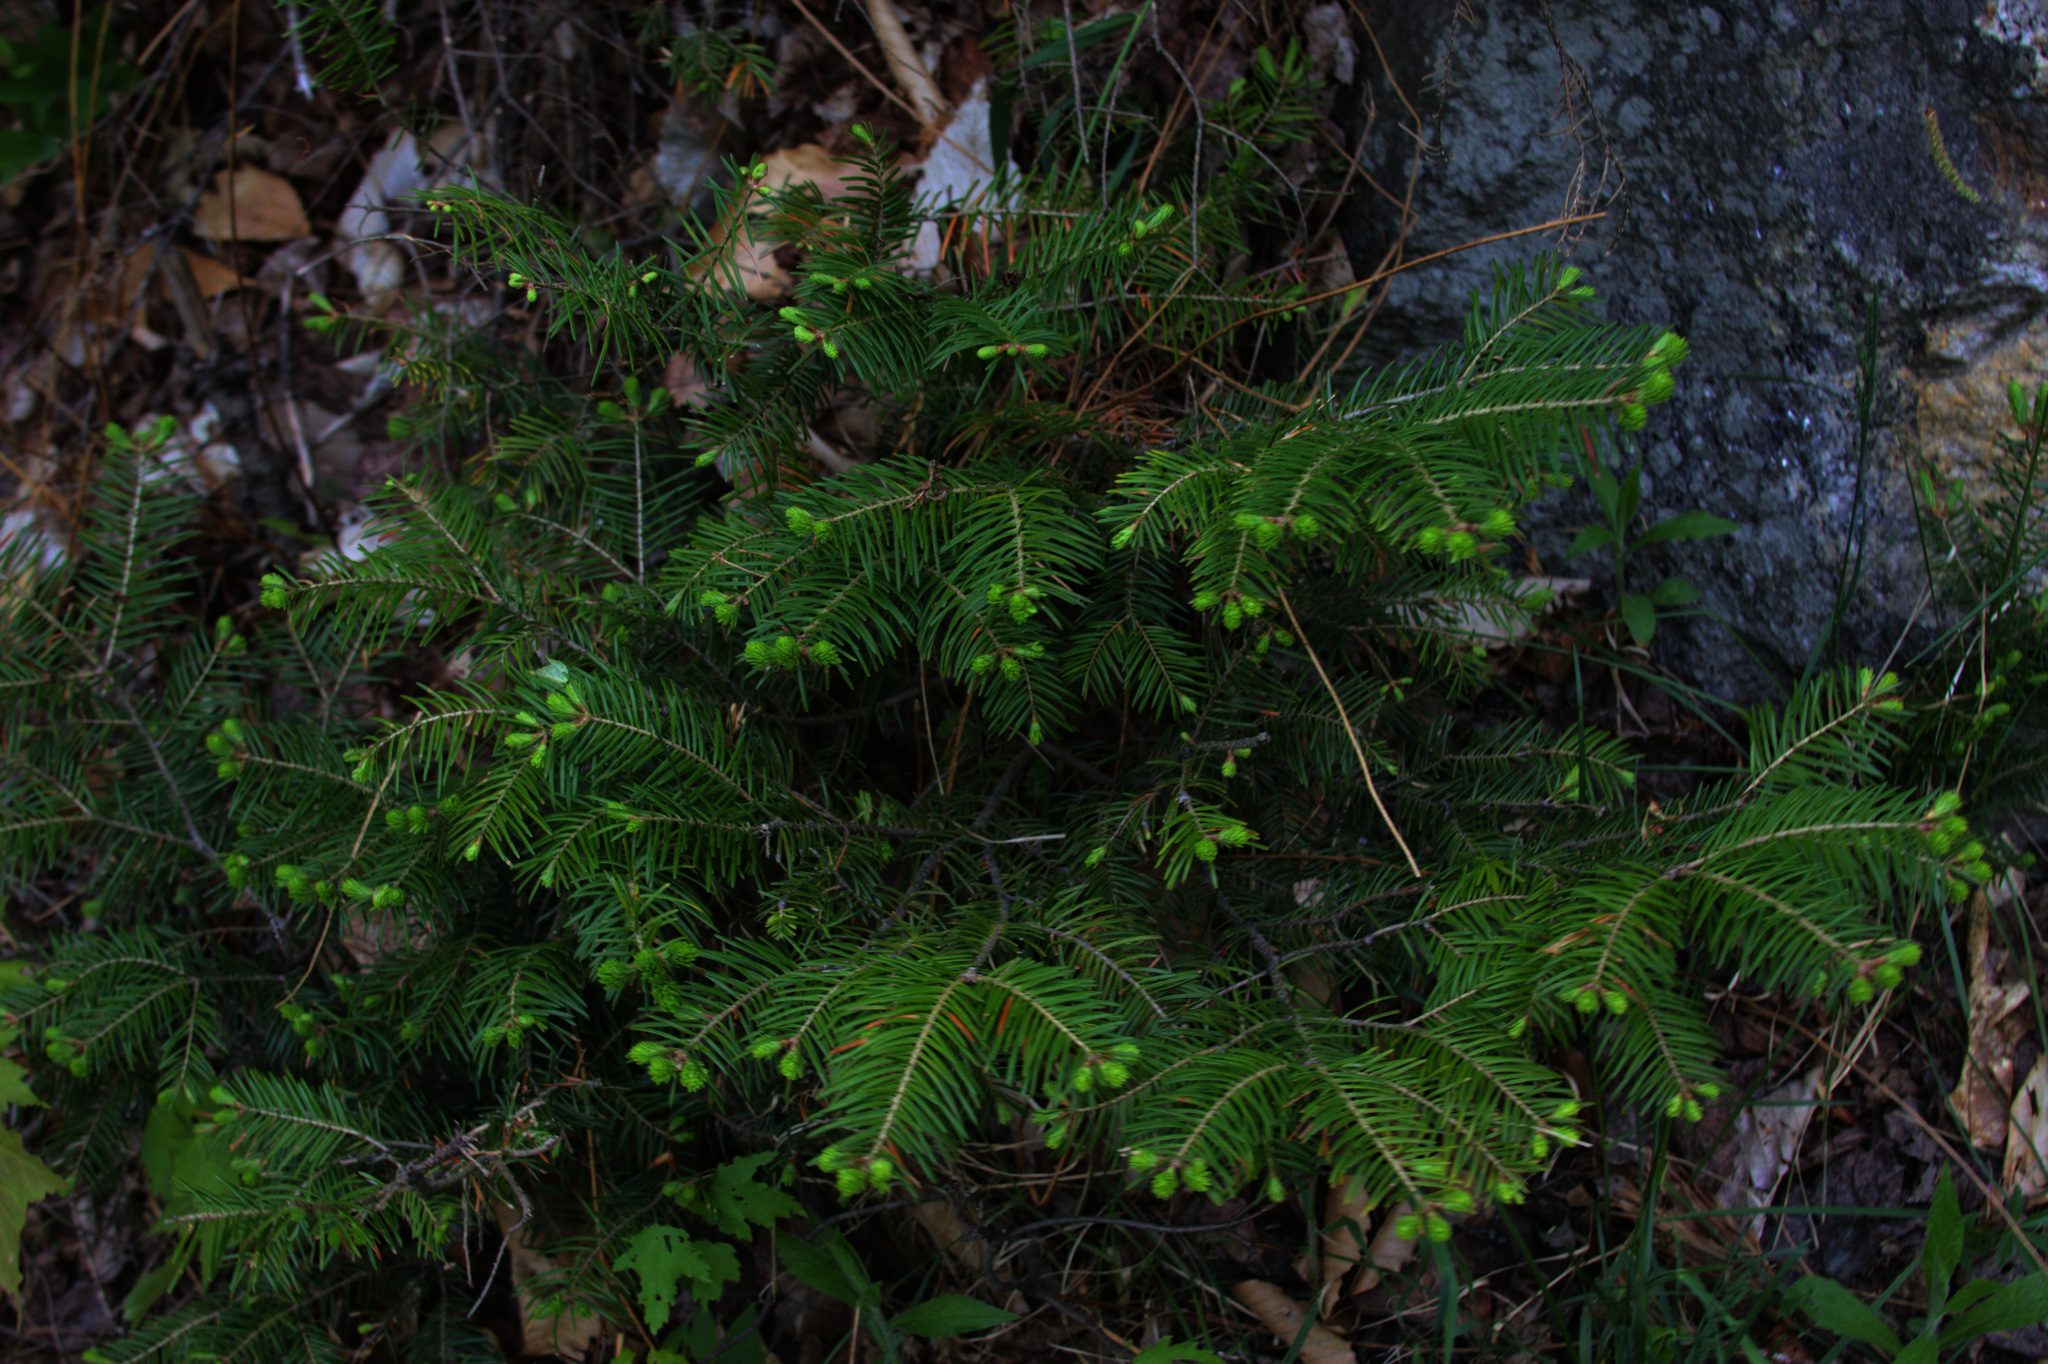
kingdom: Plantae
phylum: Tracheophyta
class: Pinopsida
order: Pinales
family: Pinaceae
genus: Abies
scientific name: Abies balsamea
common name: Balsam fir
